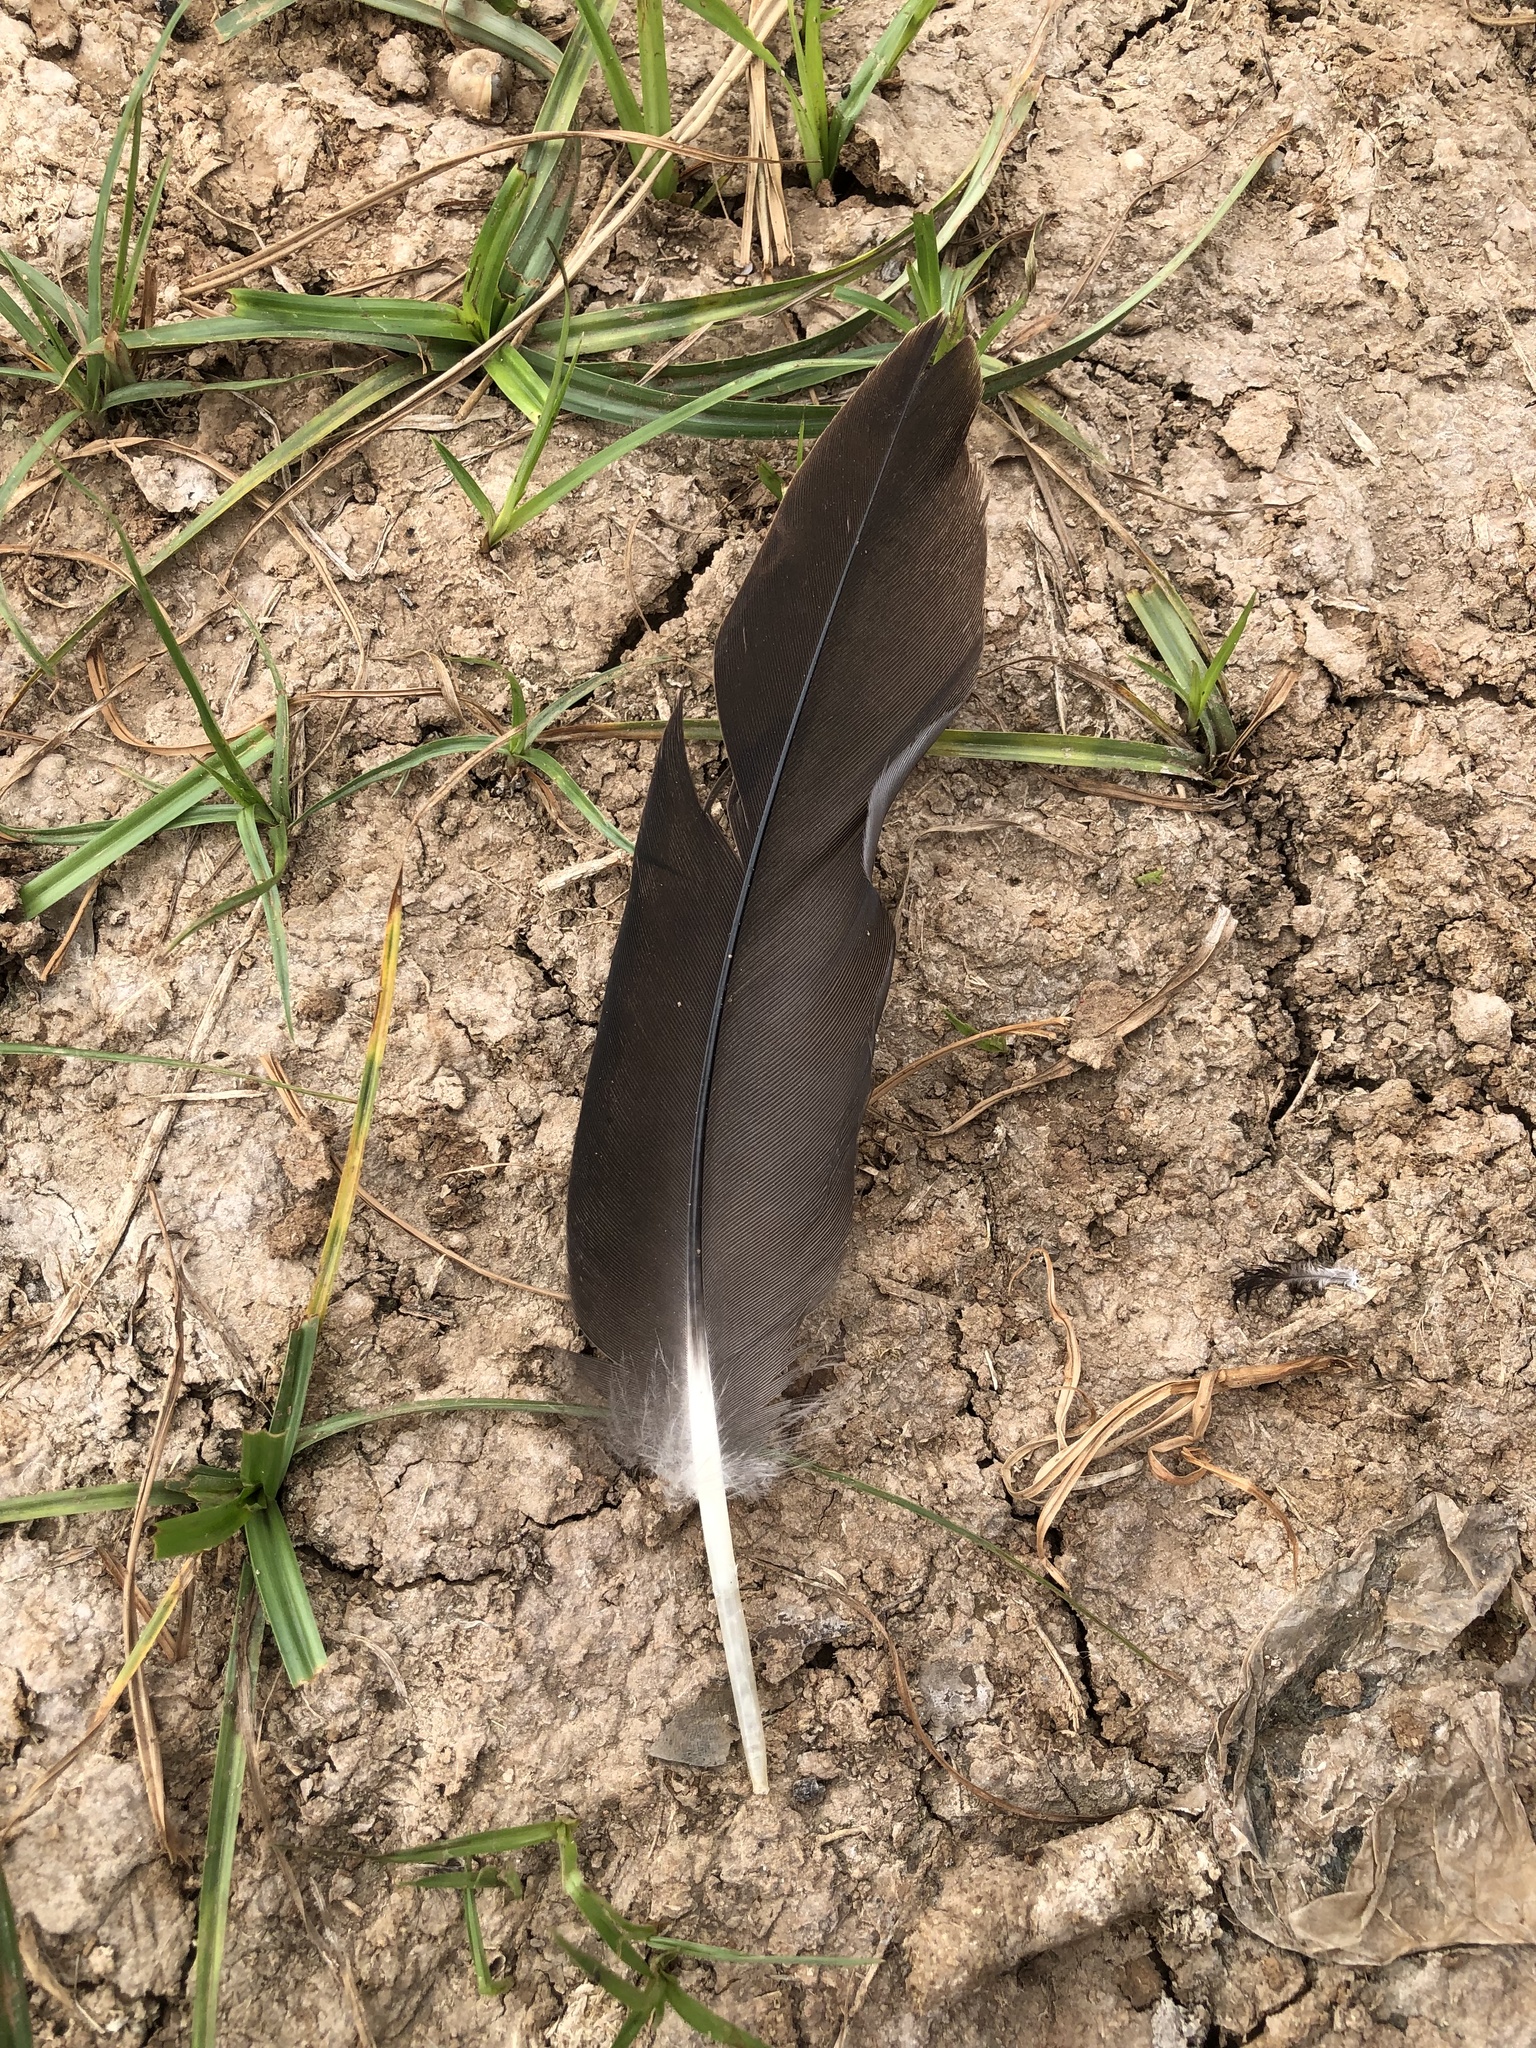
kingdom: Animalia
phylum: Chordata
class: Aves
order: Anseriformes
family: Anatidae
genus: Branta
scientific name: Branta canadensis
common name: Canada goose
